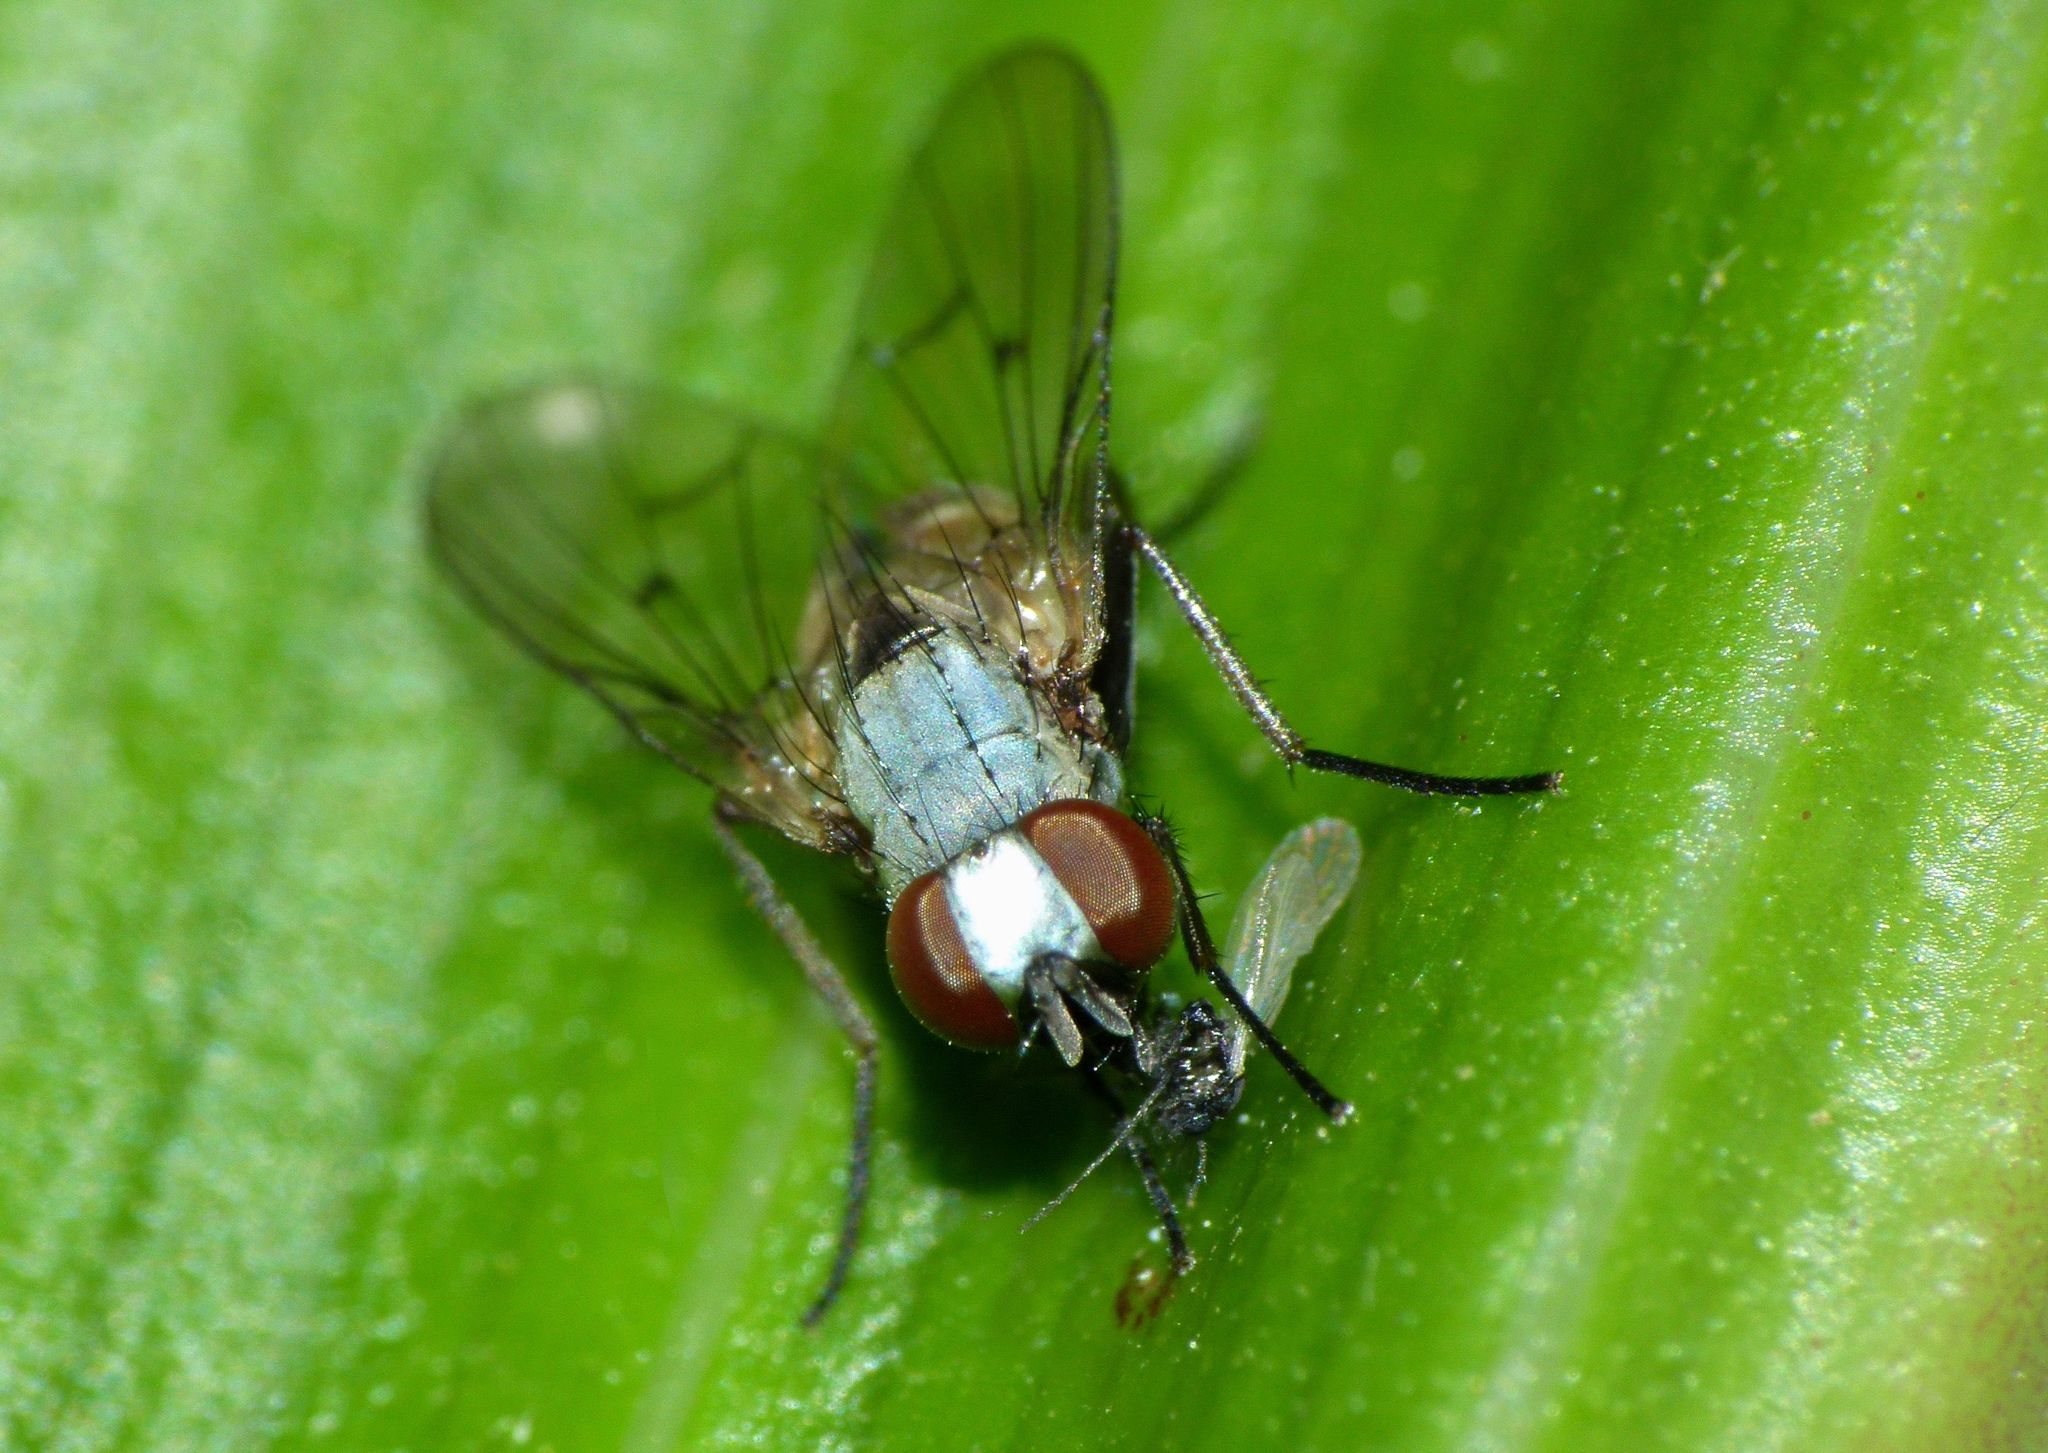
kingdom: Animalia
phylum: Arthropoda
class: Insecta
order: Diptera
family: Muscidae
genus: Spilogona
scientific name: Spilogona flaviventris
